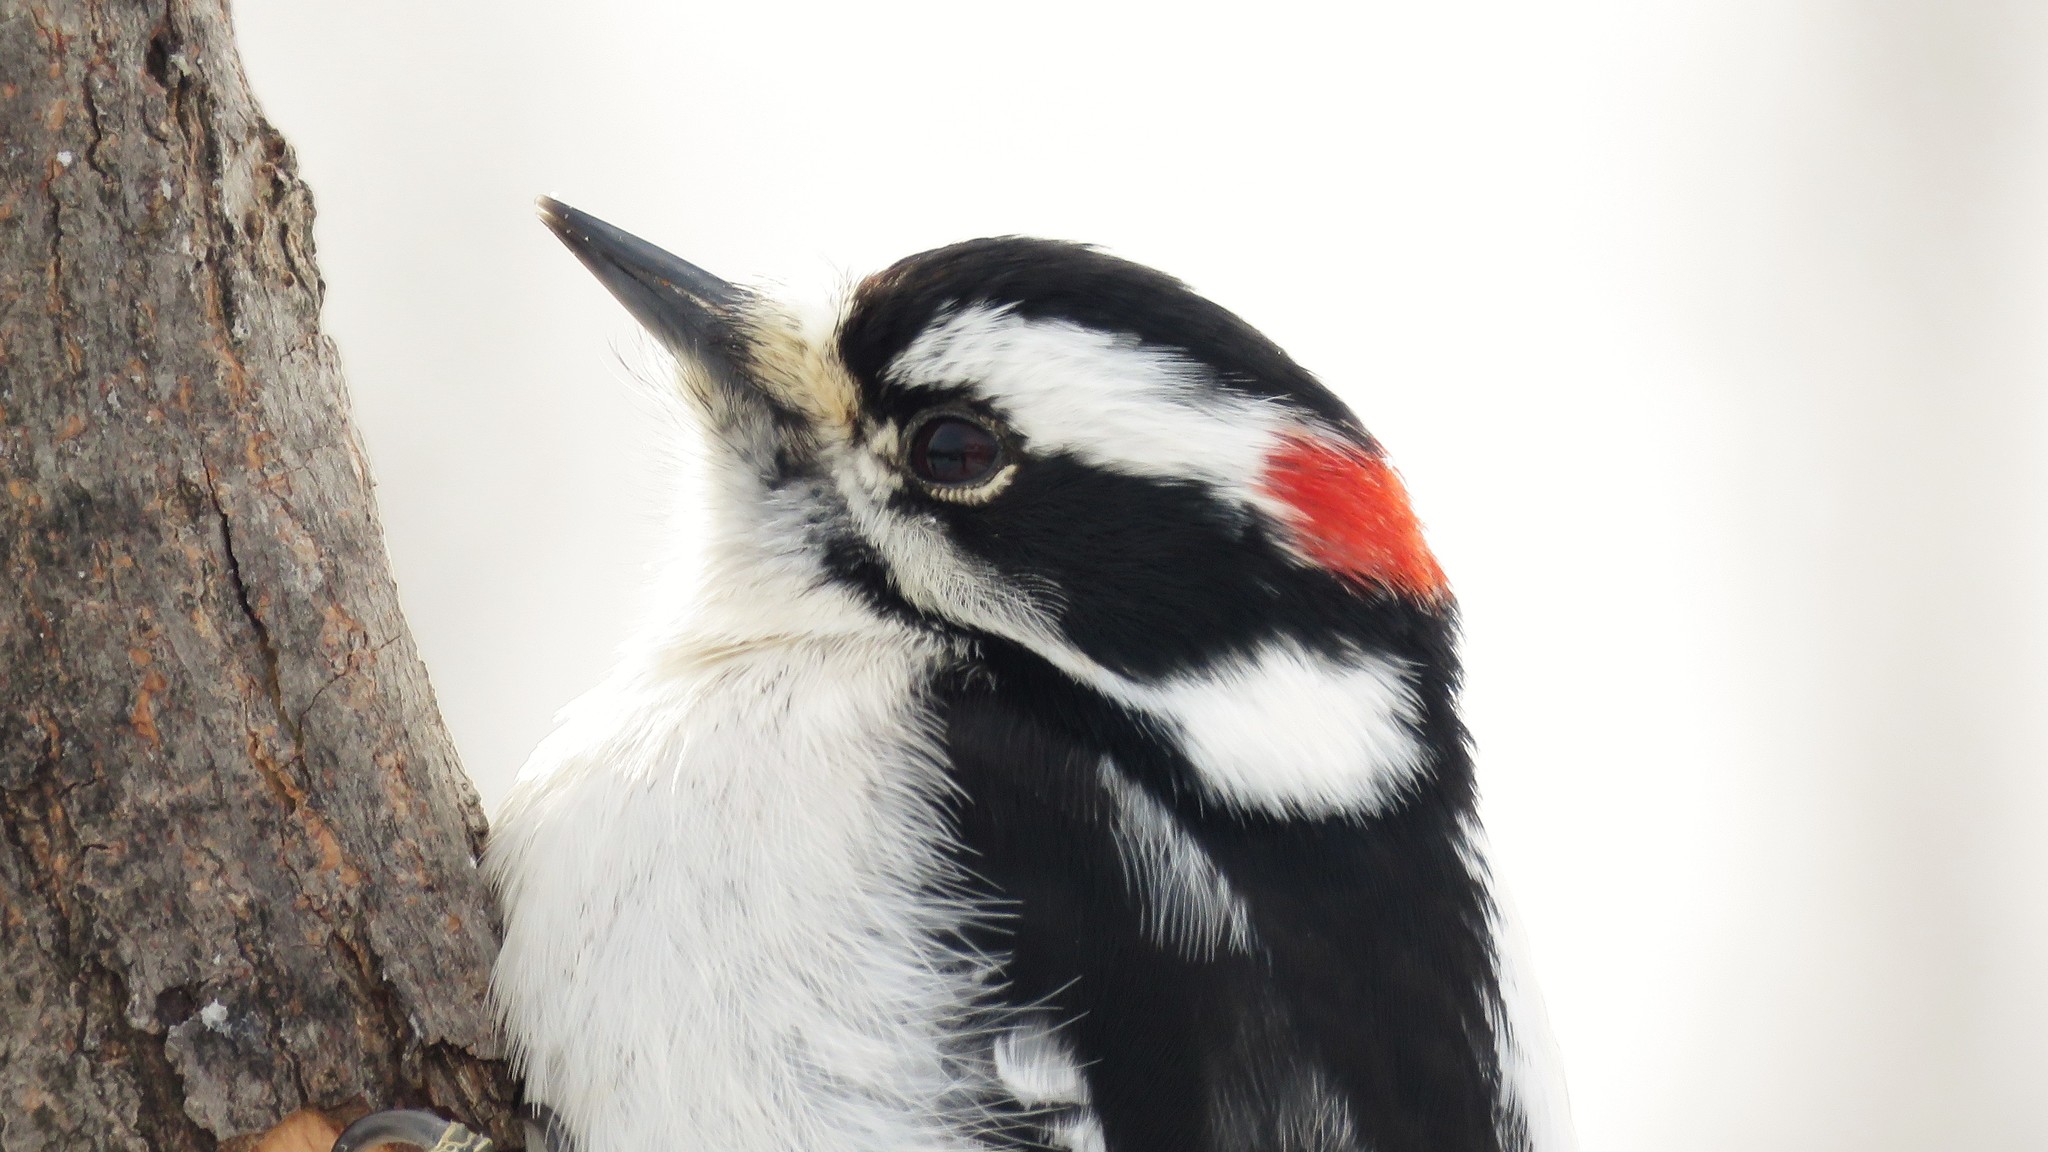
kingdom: Animalia
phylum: Chordata
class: Aves
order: Piciformes
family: Picidae
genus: Dryobates
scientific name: Dryobates pubescens
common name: Downy woodpecker
